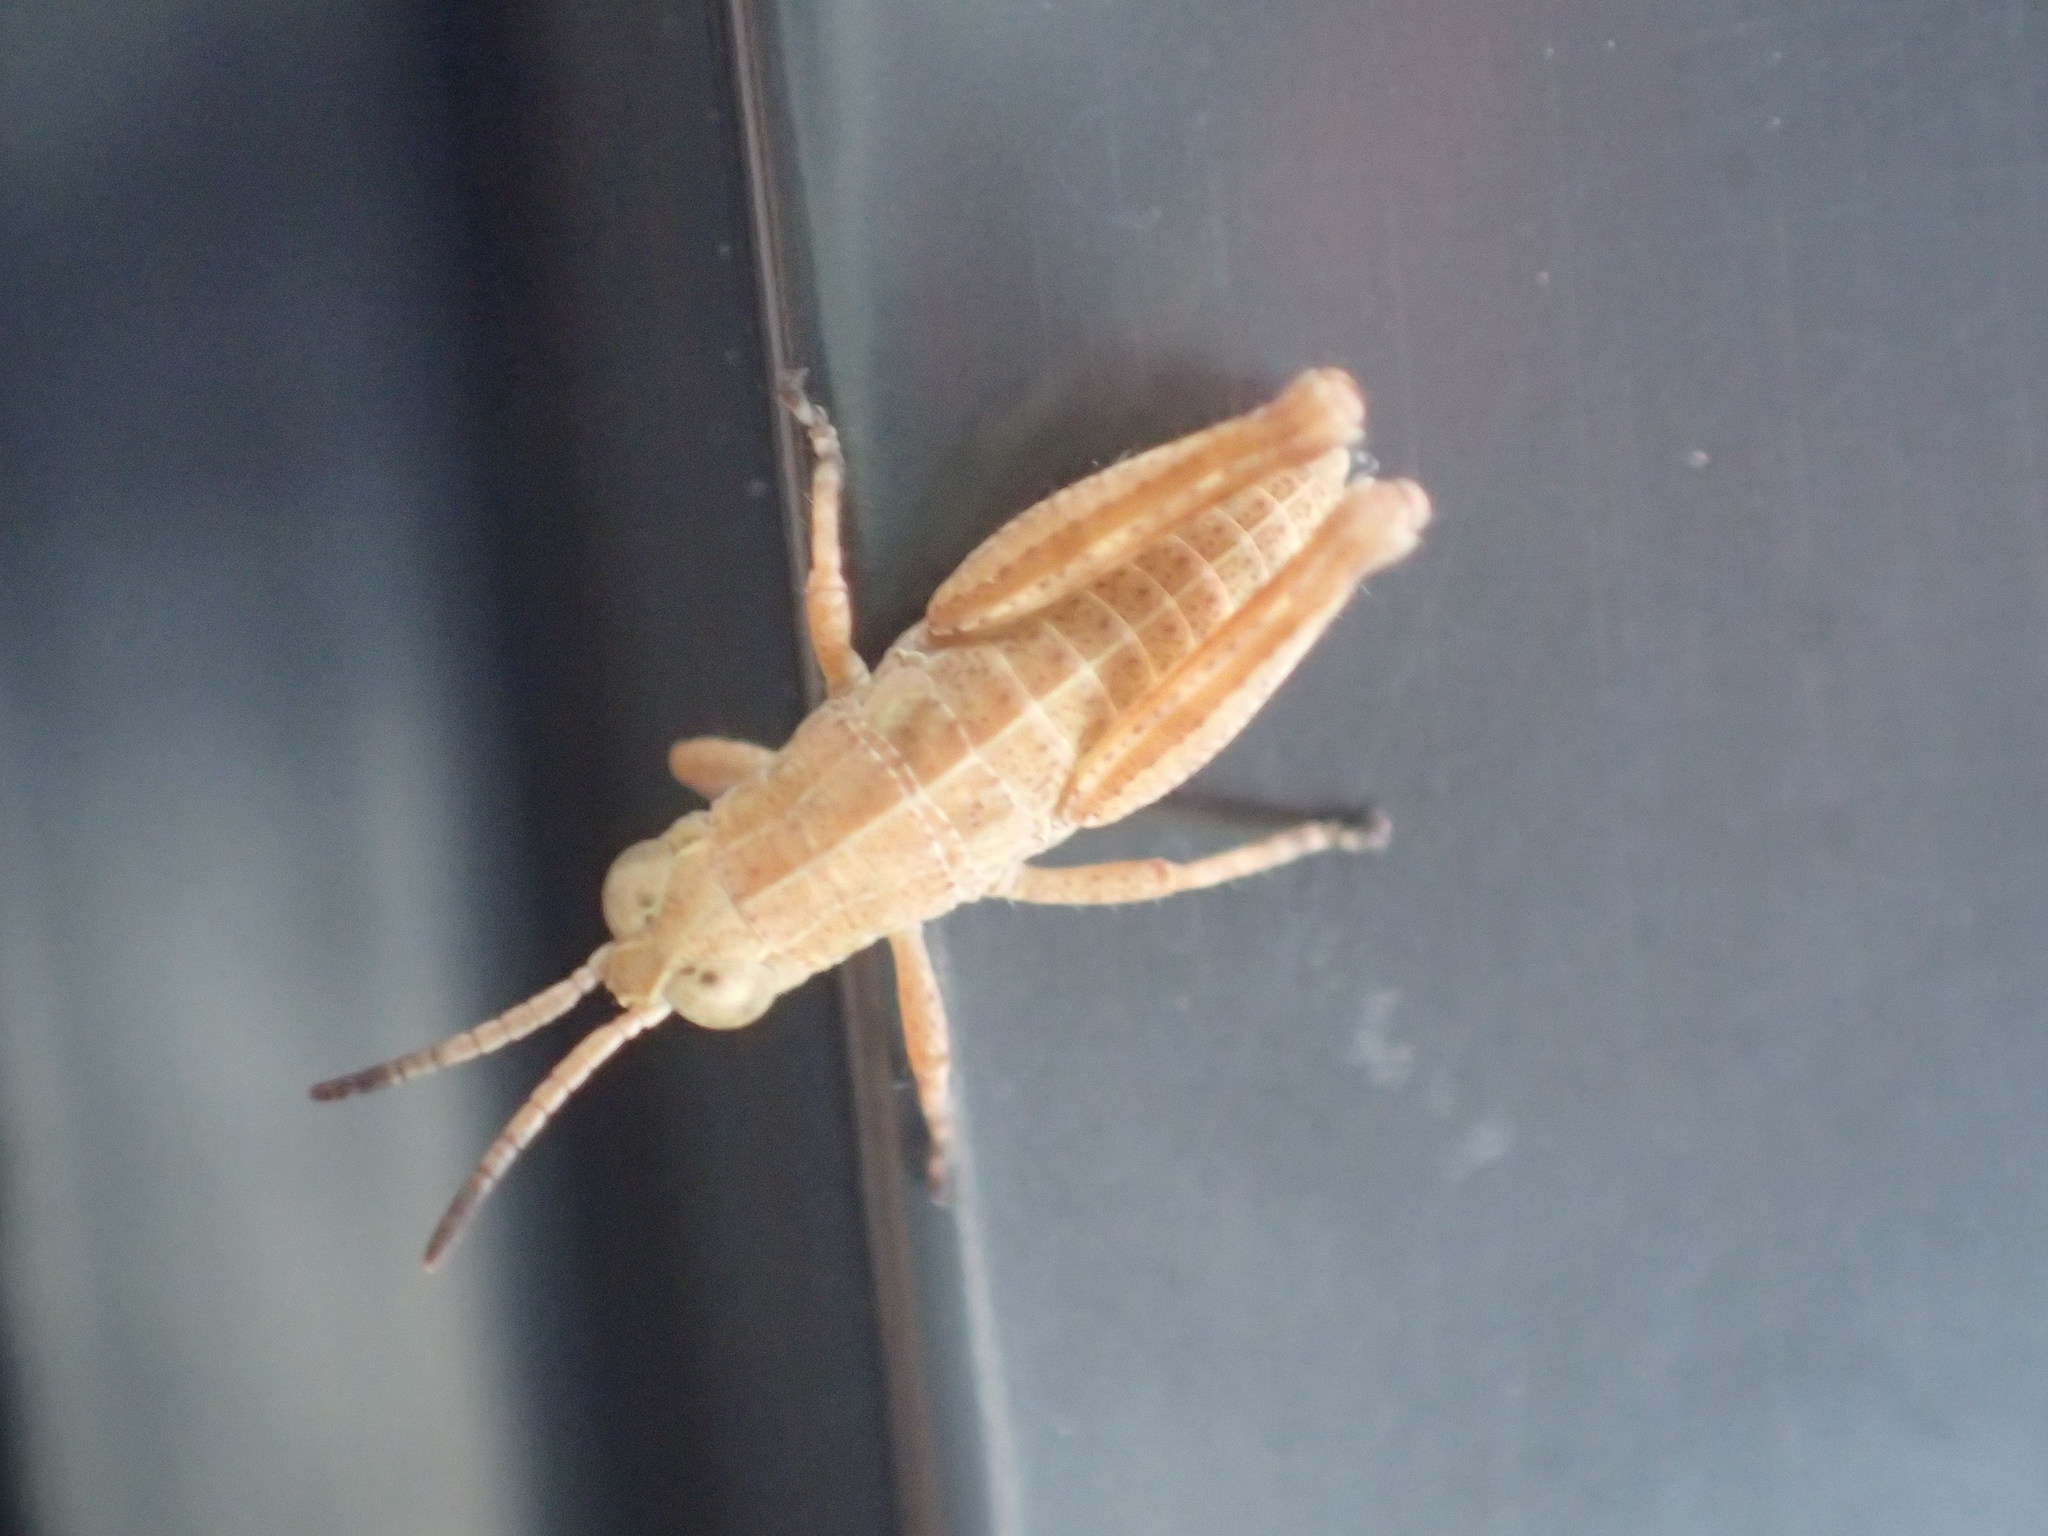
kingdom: Animalia
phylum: Arthropoda
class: Insecta
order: Orthoptera
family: Acrididae
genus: Phaulacridium
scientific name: Phaulacridium vittatum
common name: Wingless grasshopper
